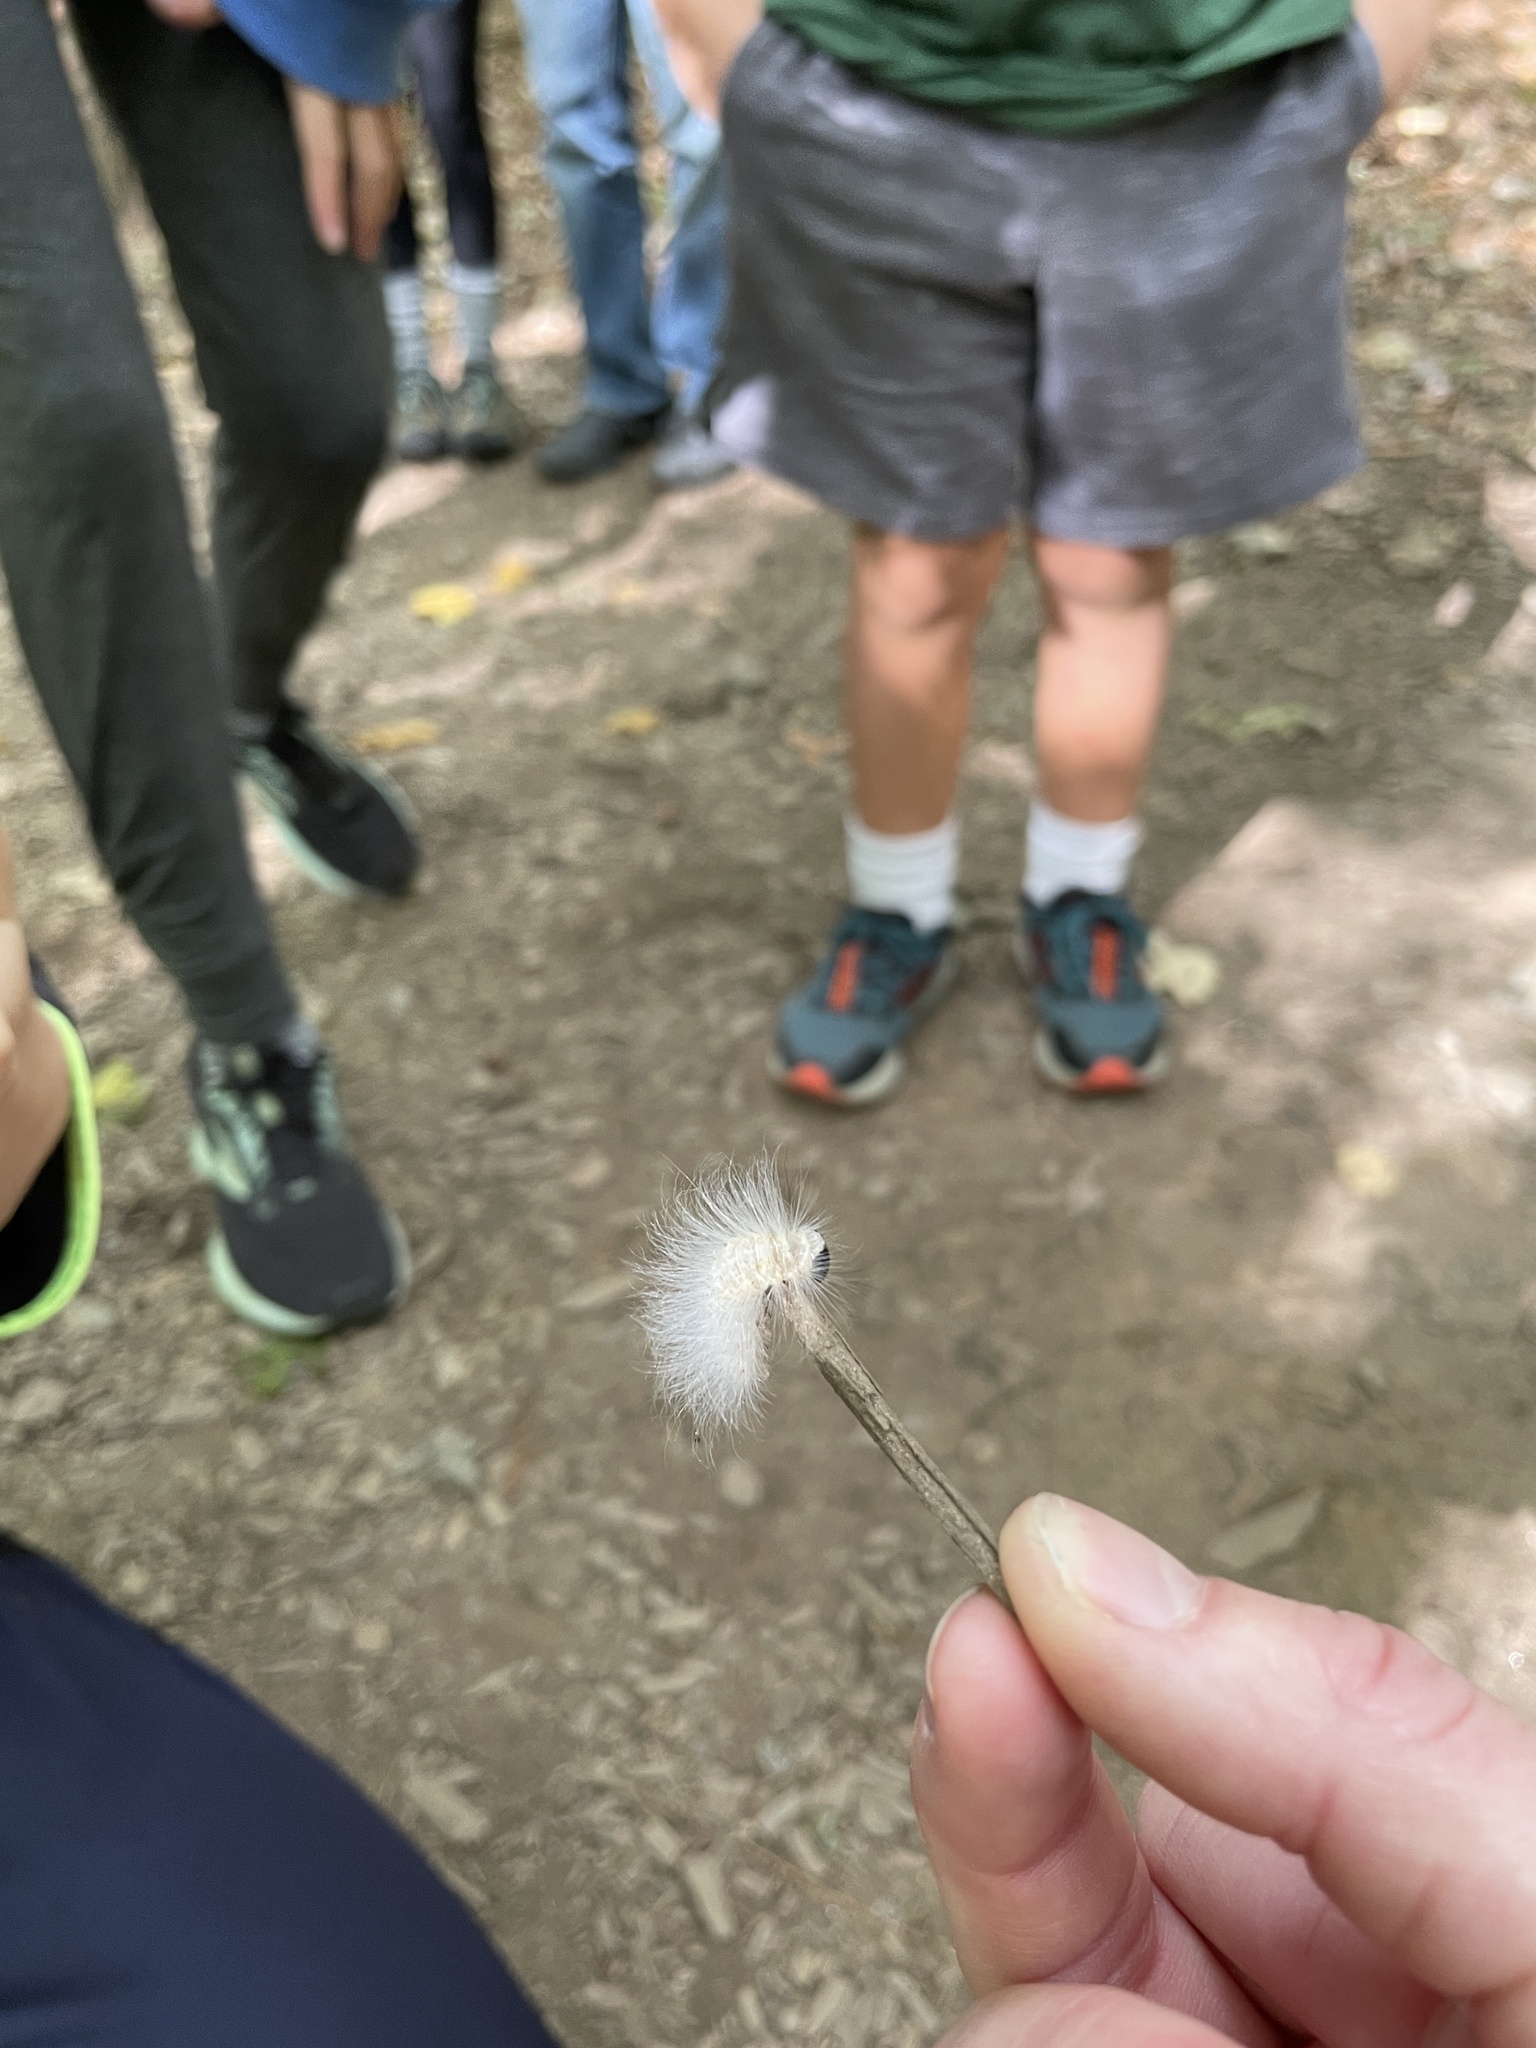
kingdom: Animalia
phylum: Arthropoda
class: Insecta
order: Lepidoptera
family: Noctuidae
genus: Charadra
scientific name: Charadra deridens
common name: Marbled tuffet
